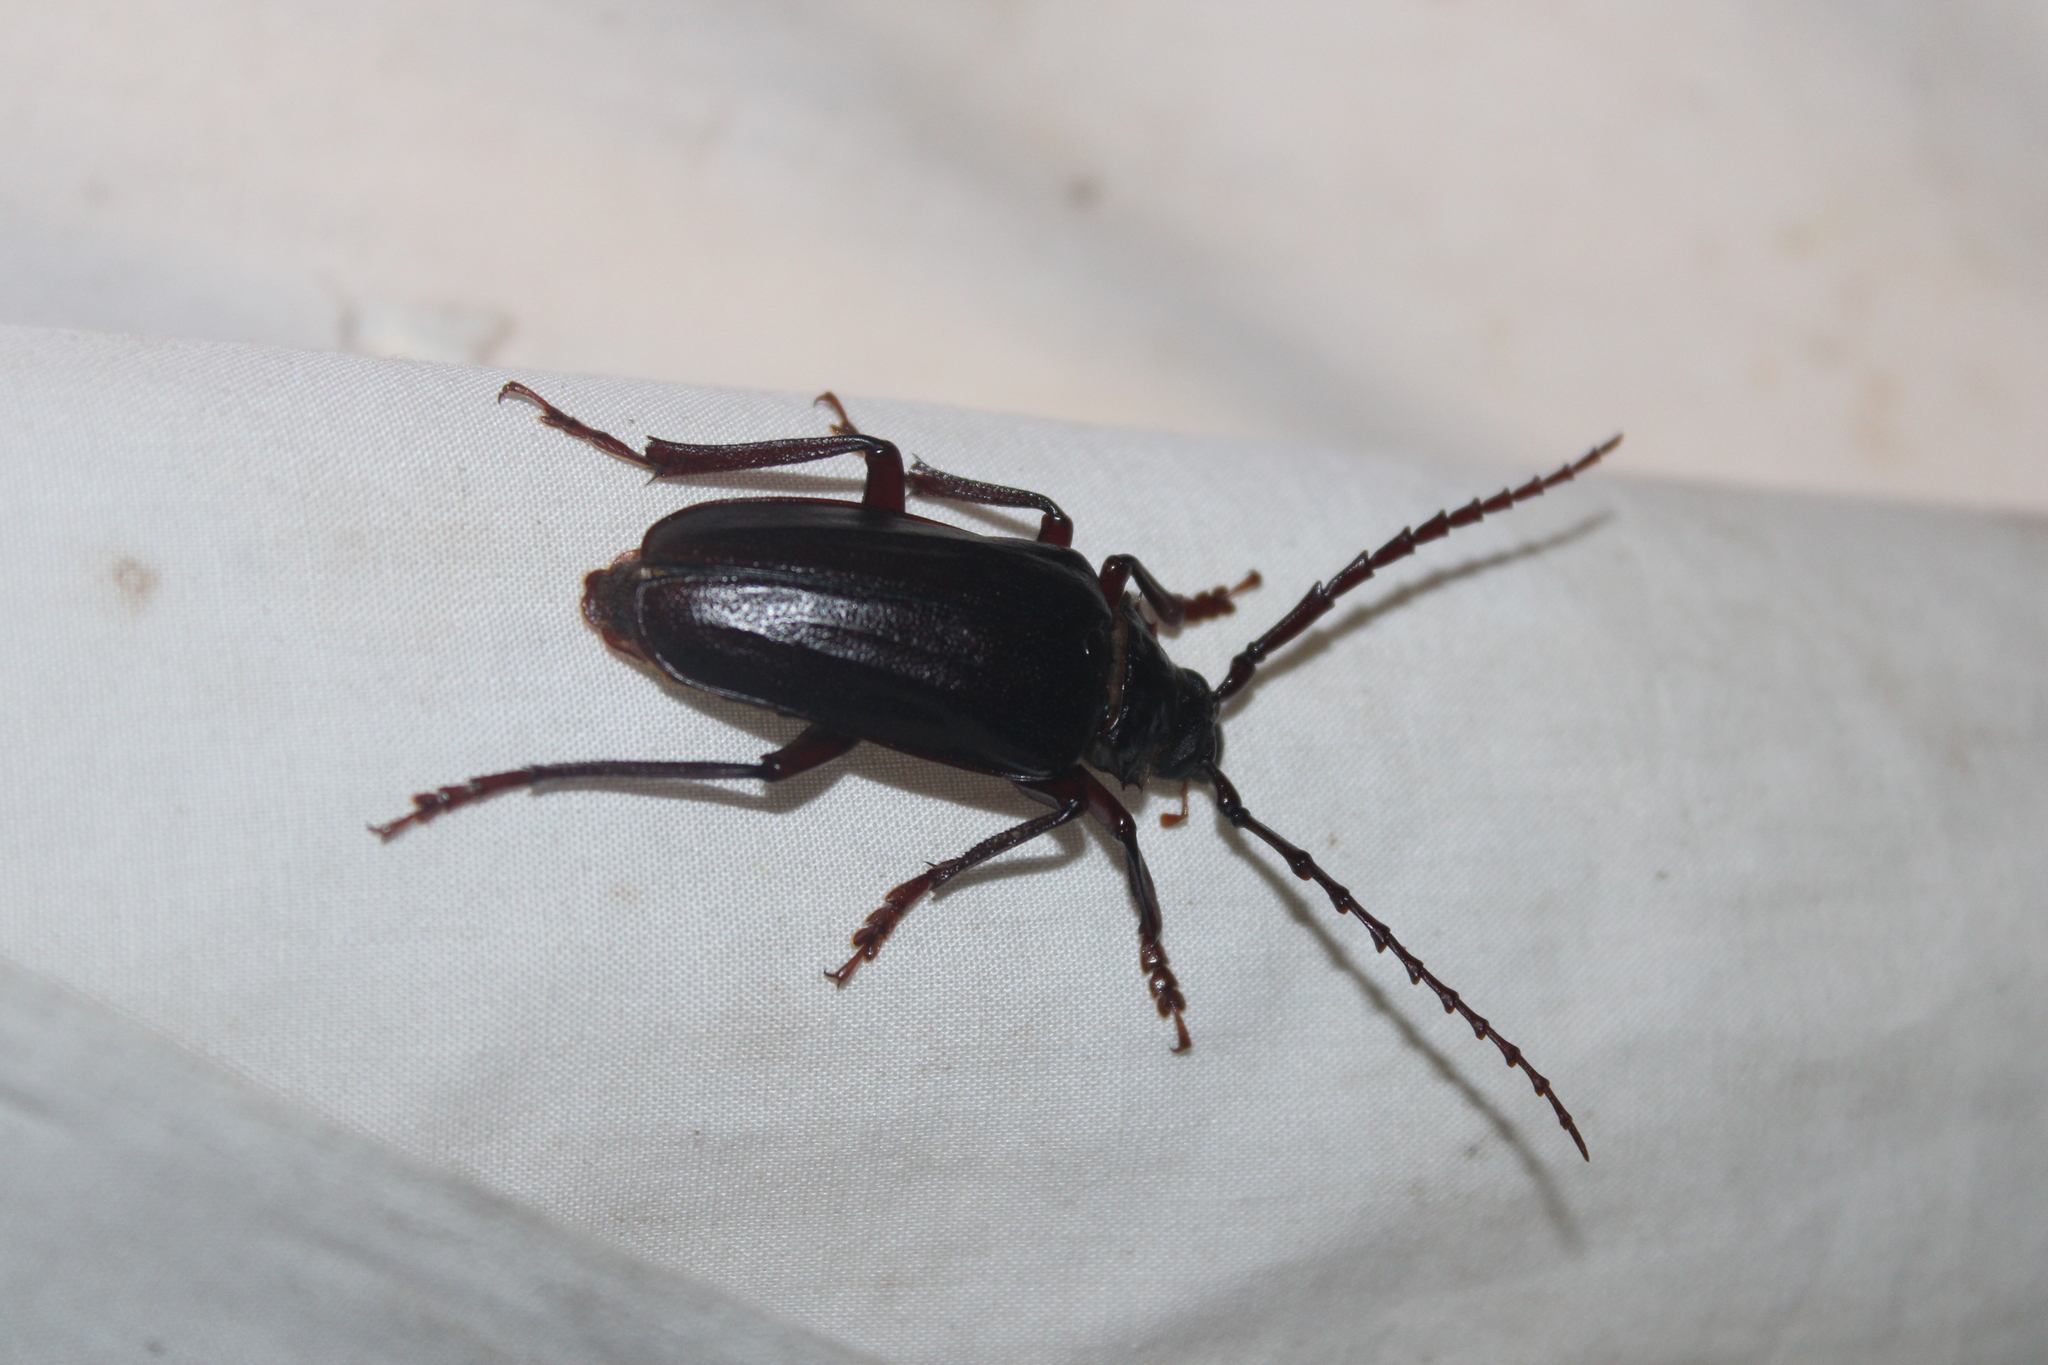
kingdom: Animalia
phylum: Arthropoda
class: Insecta
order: Coleoptera
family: Cerambycidae
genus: Prionus
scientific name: Prionus pocularis
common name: Tooth-necked longhorn beetle
